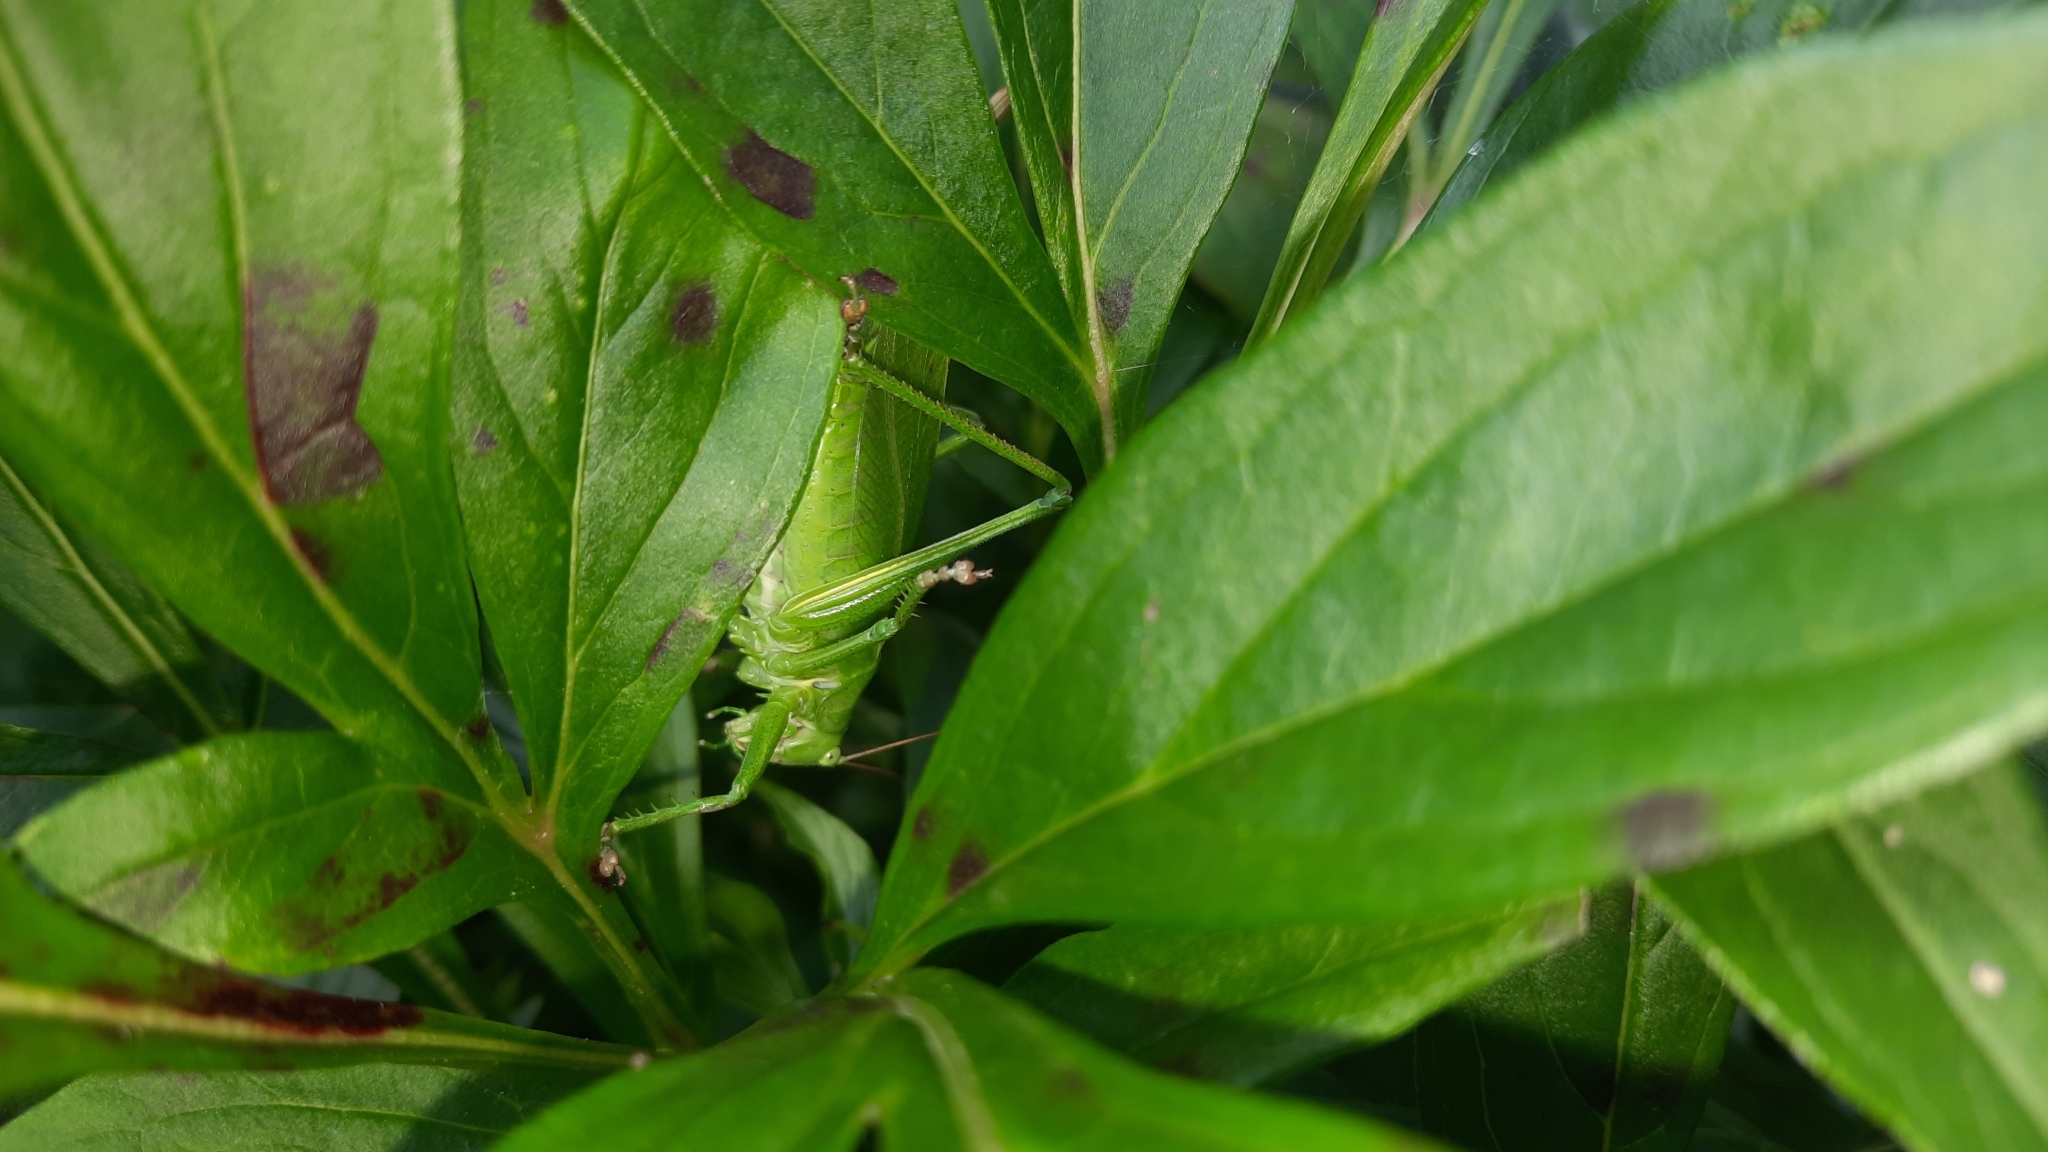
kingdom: Animalia
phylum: Arthropoda
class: Insecta
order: Orthoptera
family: Tettigoniidae
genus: Tettigonia
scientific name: Tettigonia cantans
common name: Upland green bush-cricket
